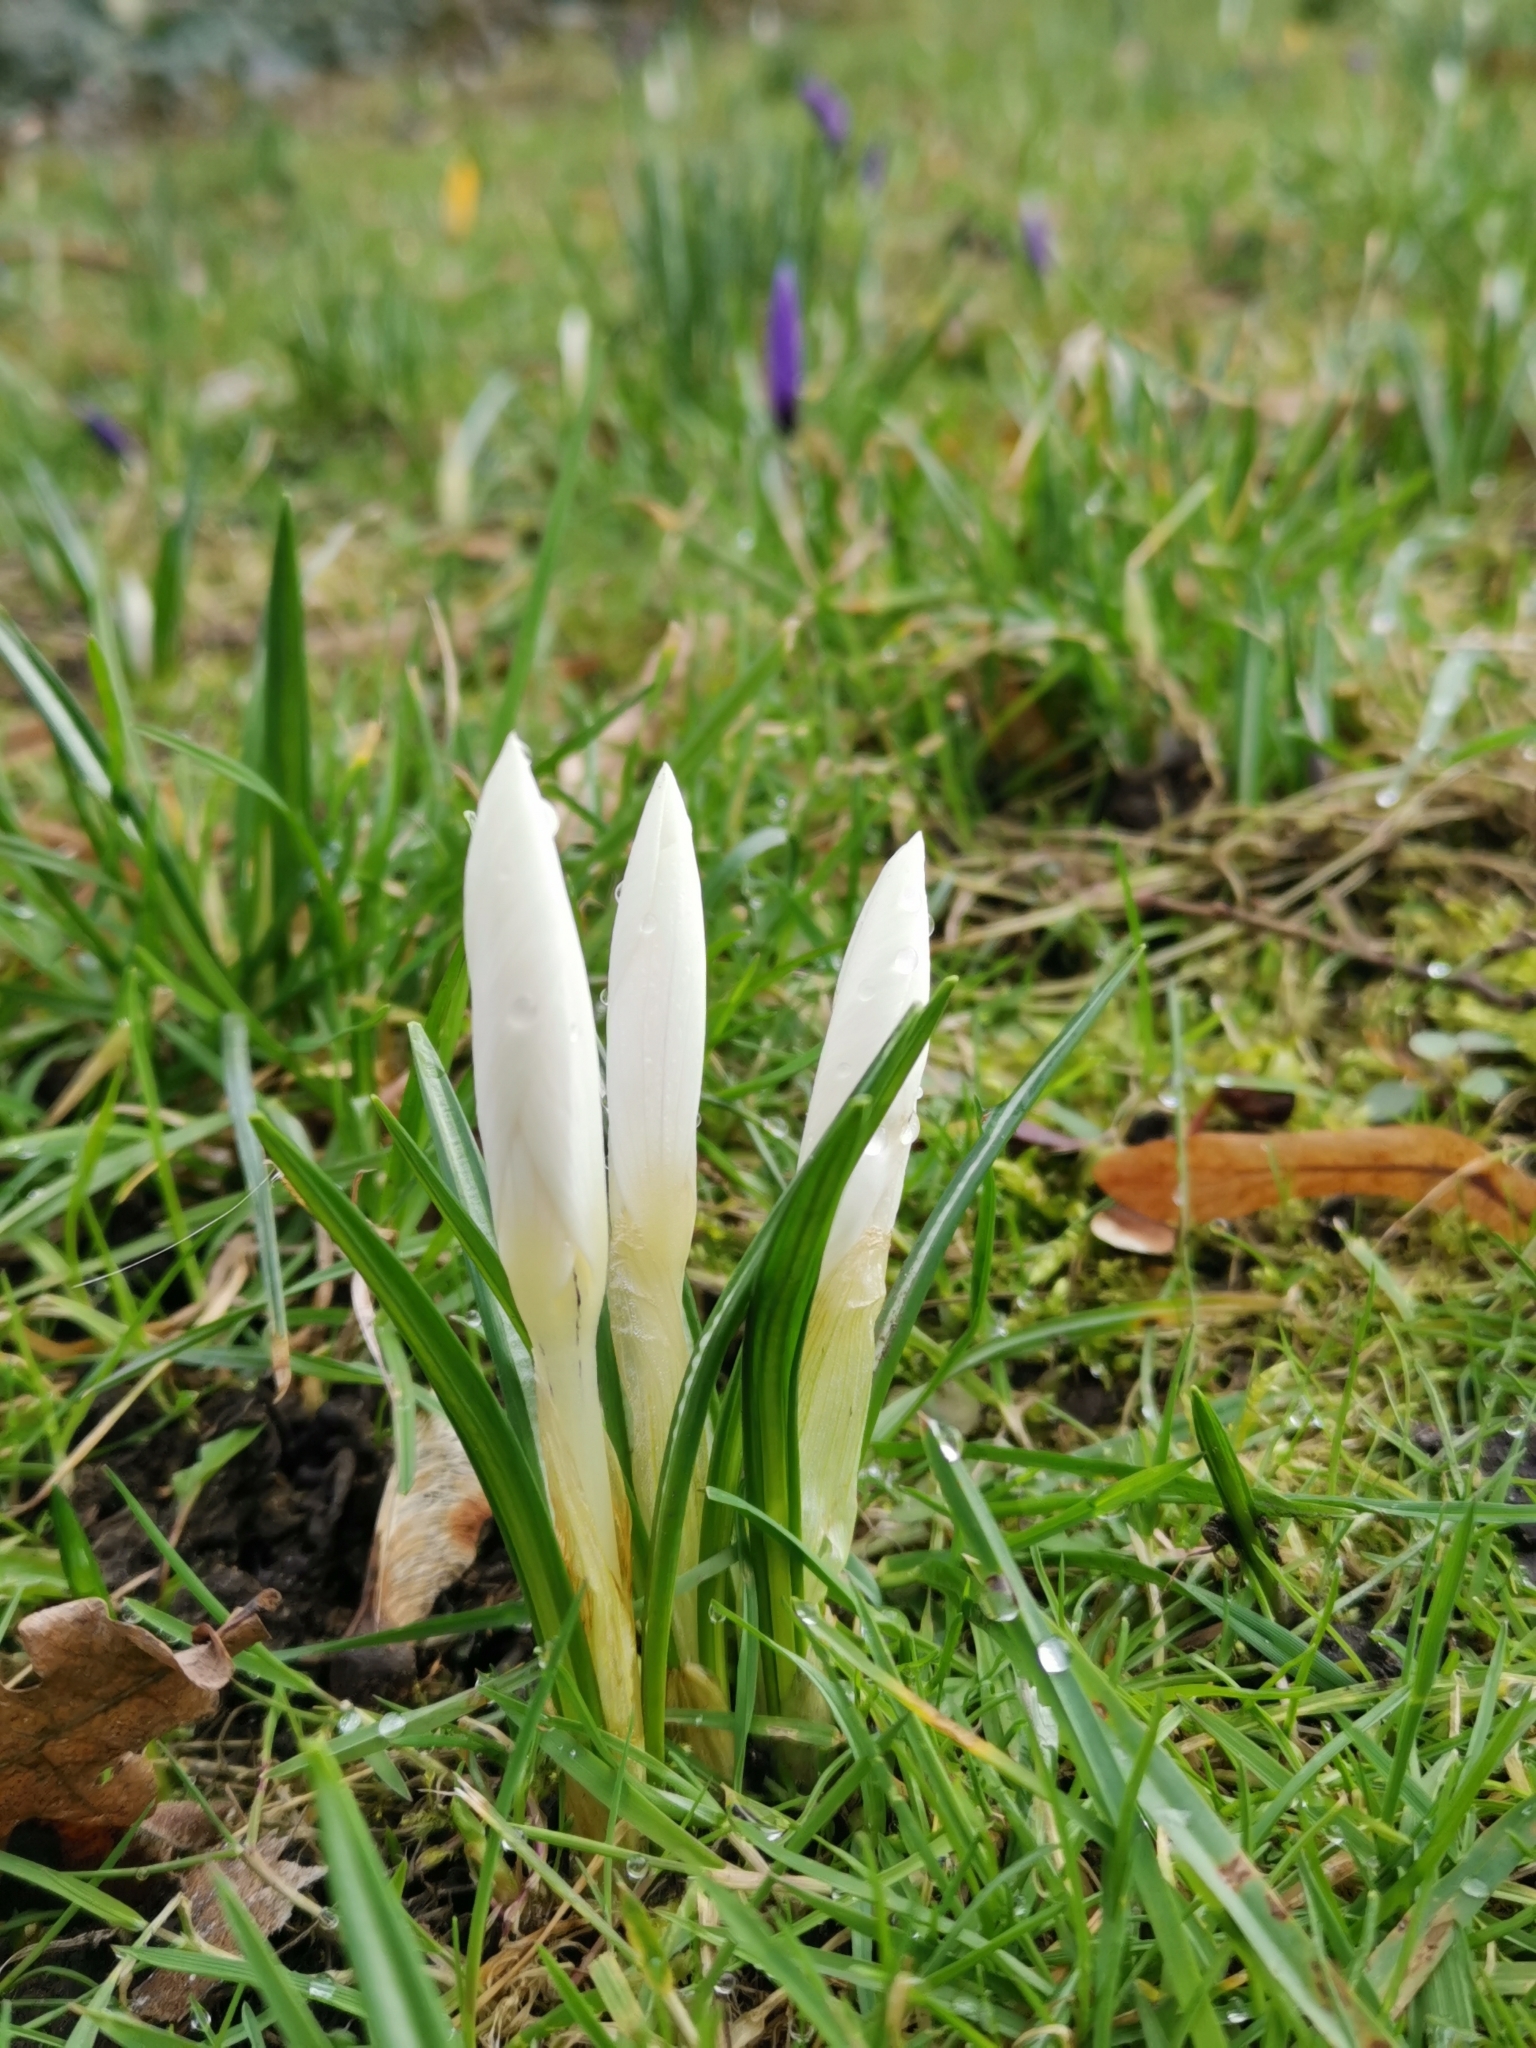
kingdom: Plantae
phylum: Tracheophyta
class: Liliopsida
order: Asparagales
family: Iridaceae
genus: Crocus
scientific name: Crocus vernus
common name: Spring crocus
